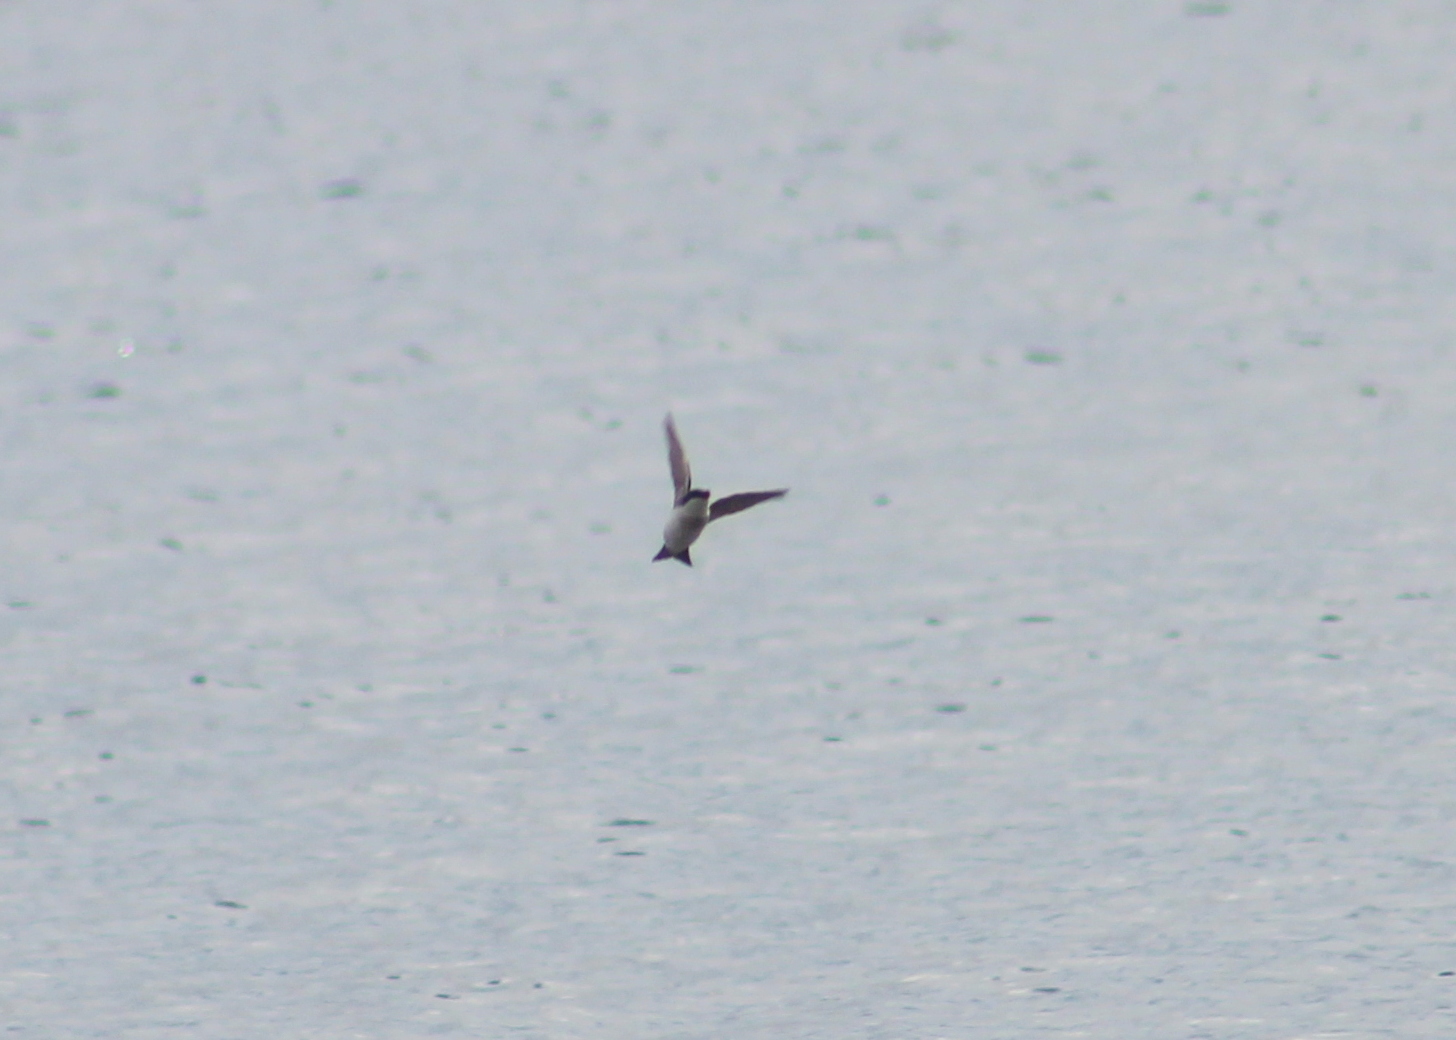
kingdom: Animalia
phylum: Chordata
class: Aves
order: Passeriformes
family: Hirundinidae
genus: Tachycineta
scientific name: Tachycineta bicolor
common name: Tree swallow
